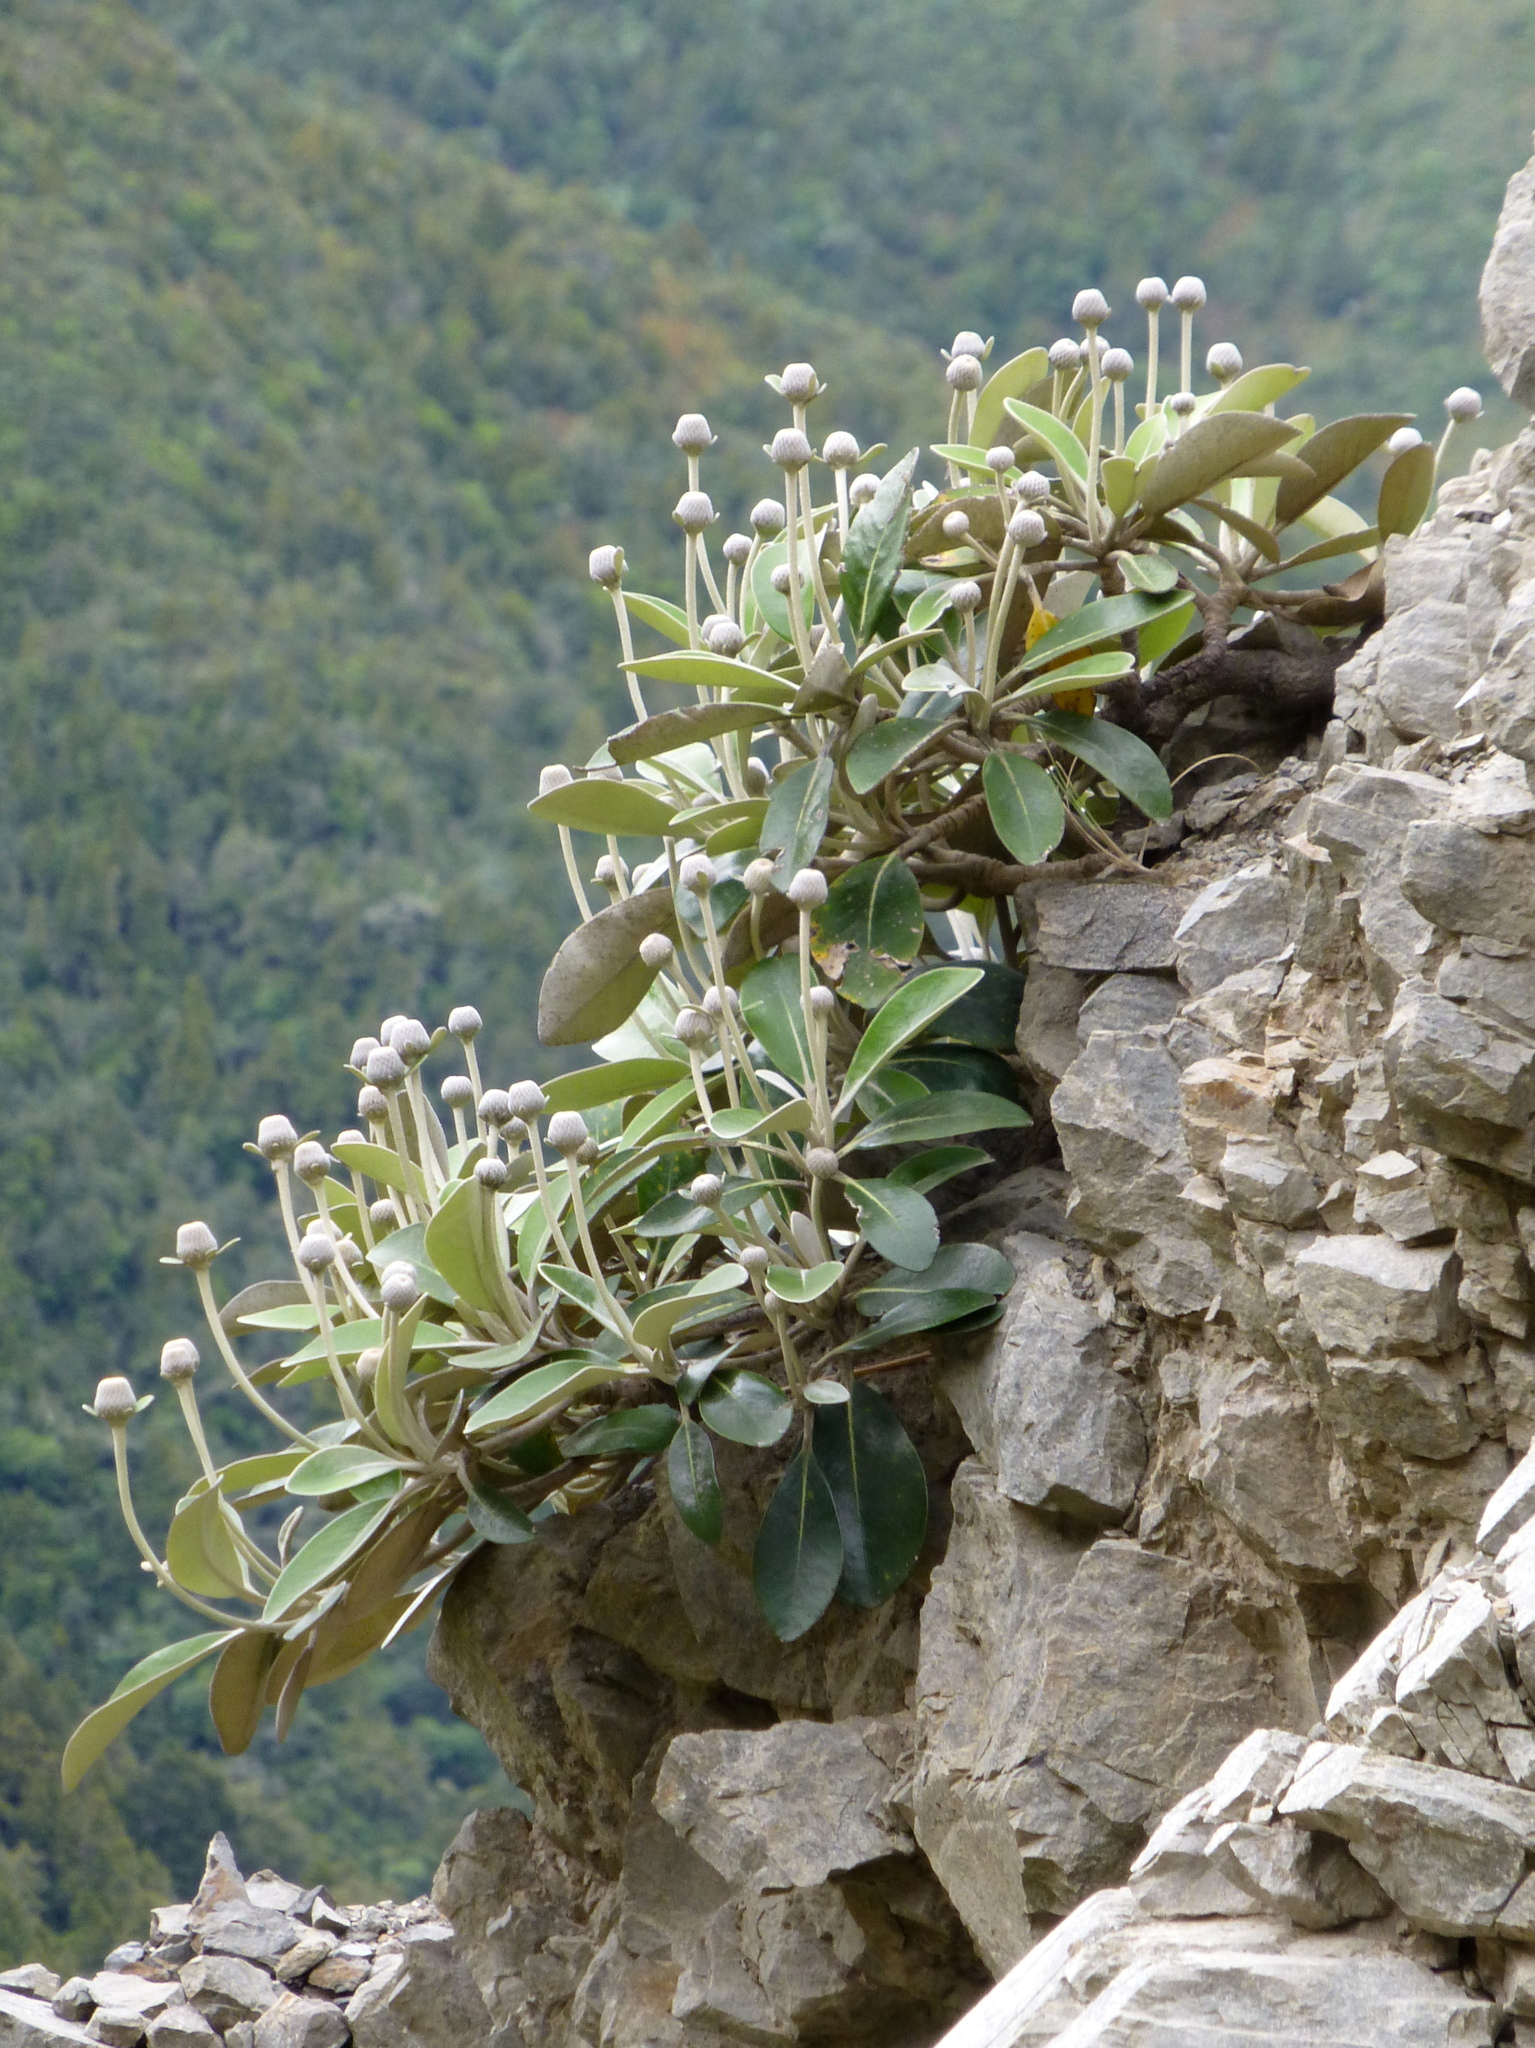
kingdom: Plantae
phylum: Tracheophyta
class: Magnoliopsida
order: Asterales
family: Asteraceae
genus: Pachystegia
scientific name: Pachystegia minor
